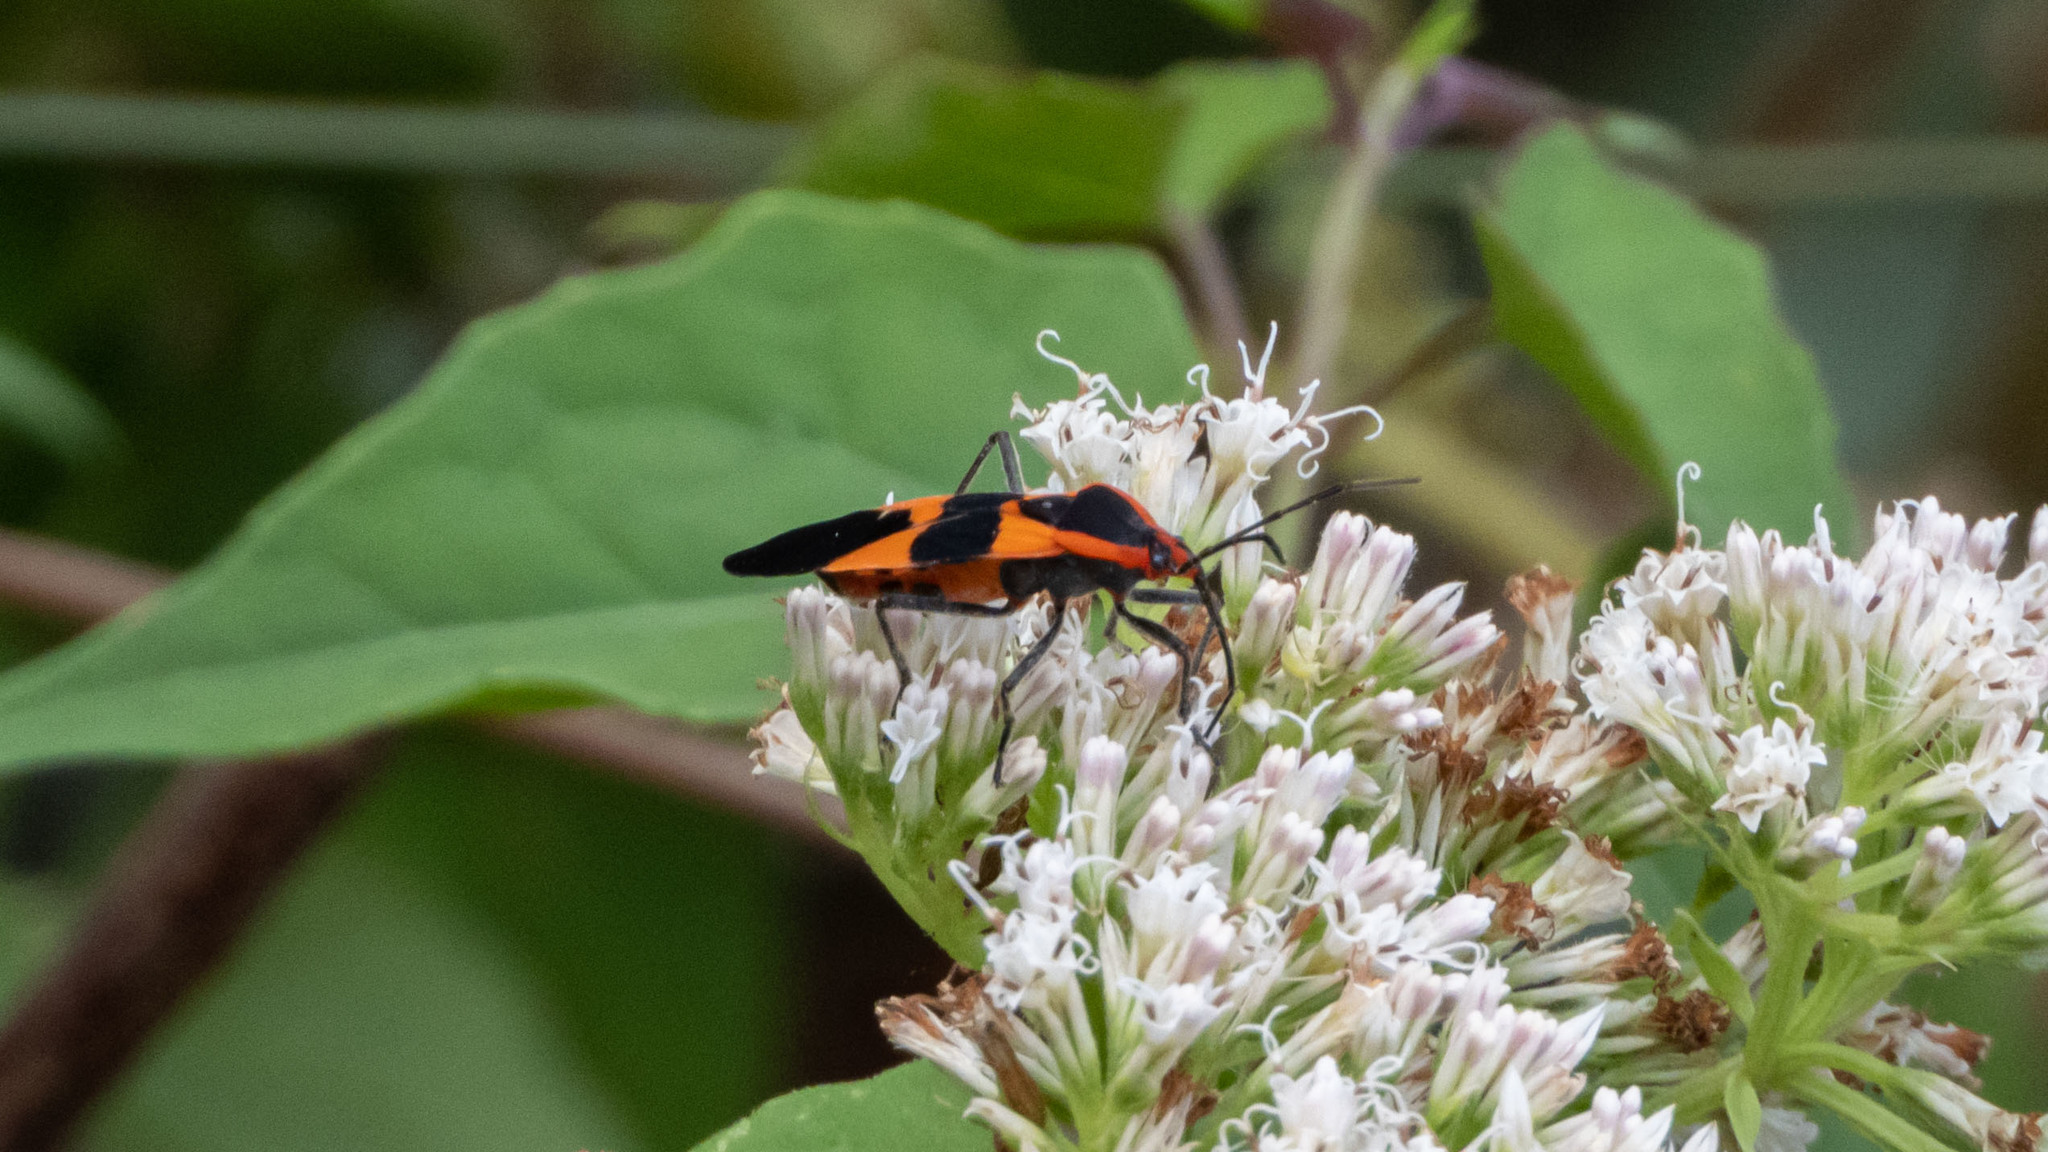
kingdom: Animalia
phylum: Arthropoda
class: Insecta
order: Hemiptera
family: Lygaeidae
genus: Oncopeltus
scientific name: Oncopeltus fasciatus
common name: Large milkweed bug
